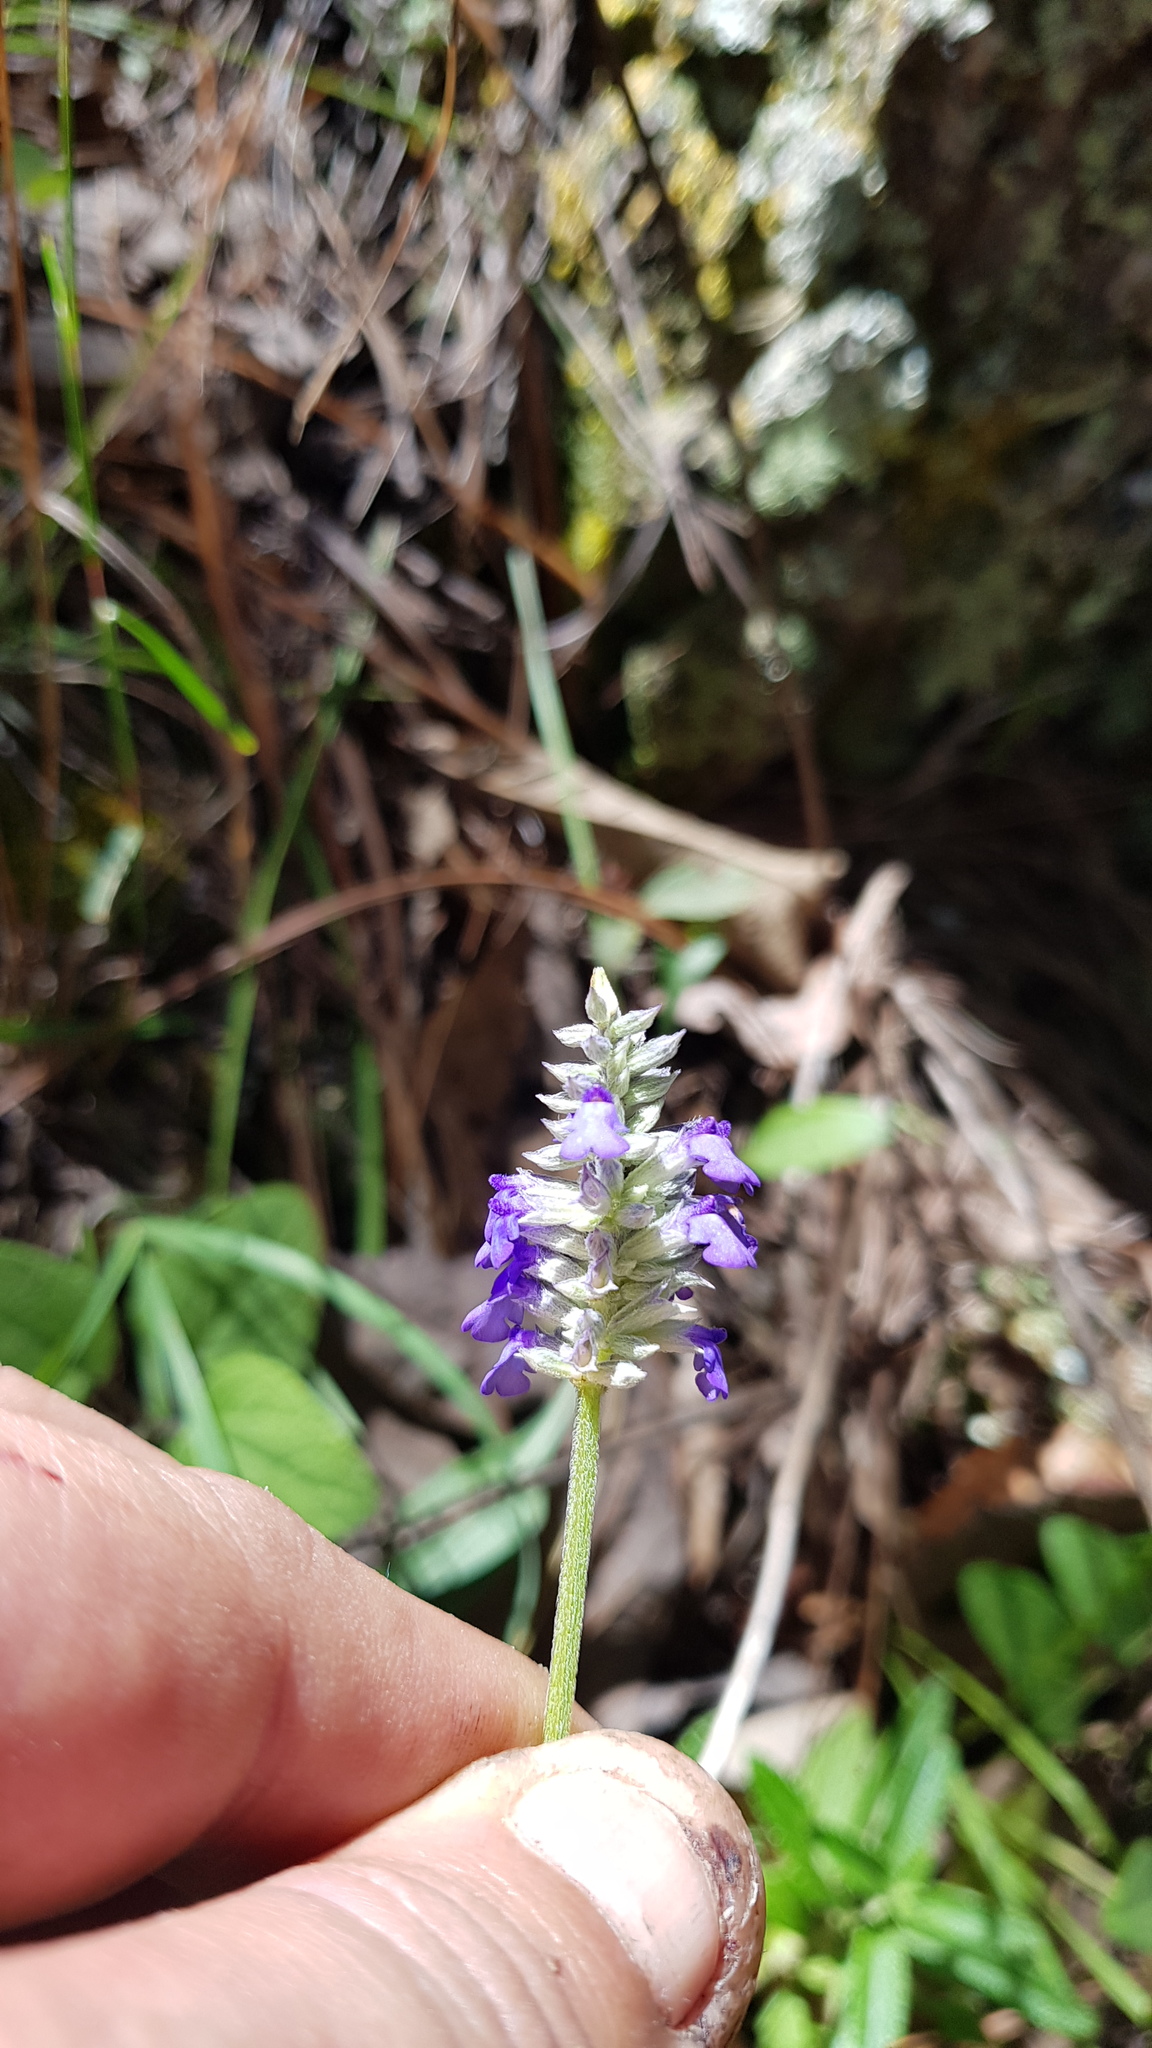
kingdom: Plantae
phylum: Tracheophyta
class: Magnoliopsida
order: Lamiales
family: Lamiaceae
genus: Salvia
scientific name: Salvia lavanduloides
